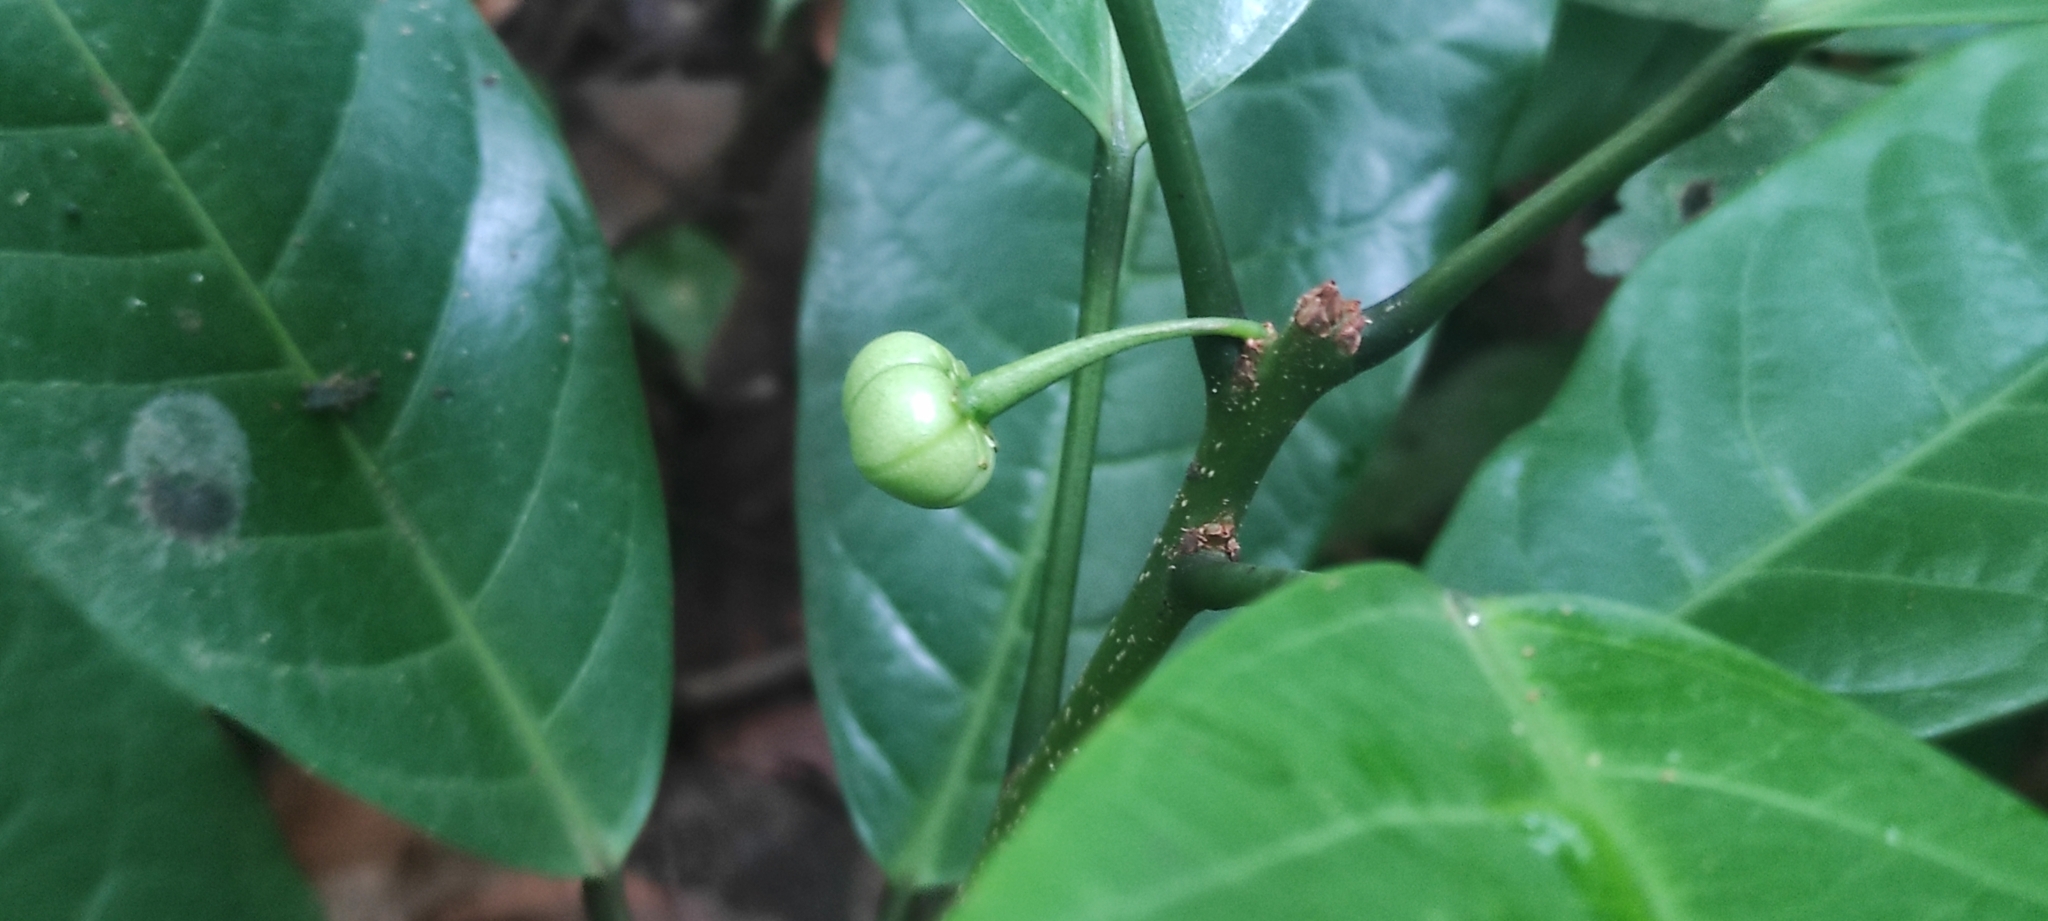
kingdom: Plantae
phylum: Tracheophyta
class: Magnoliopsida
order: Malpighiales
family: Phyllanthaceae
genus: Actephila
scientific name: Actephila excelsa
